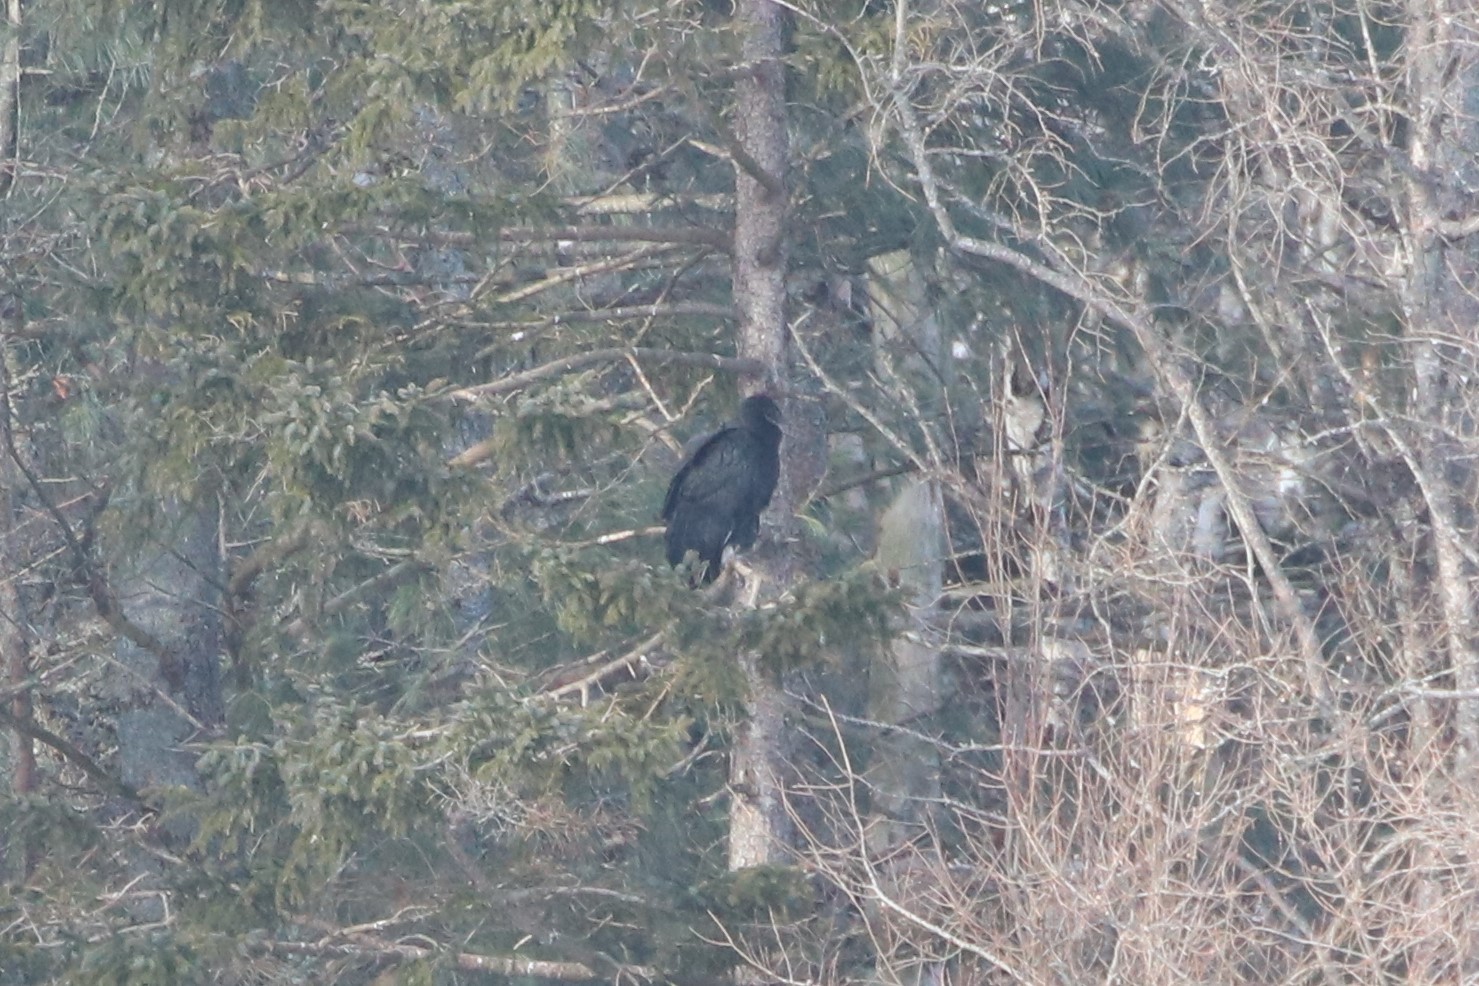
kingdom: Animalia
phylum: Chordata
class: Aves
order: Accipitriformes
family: Cathartidae
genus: Coragyps
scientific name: Coragyps atratus
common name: Black vulture
